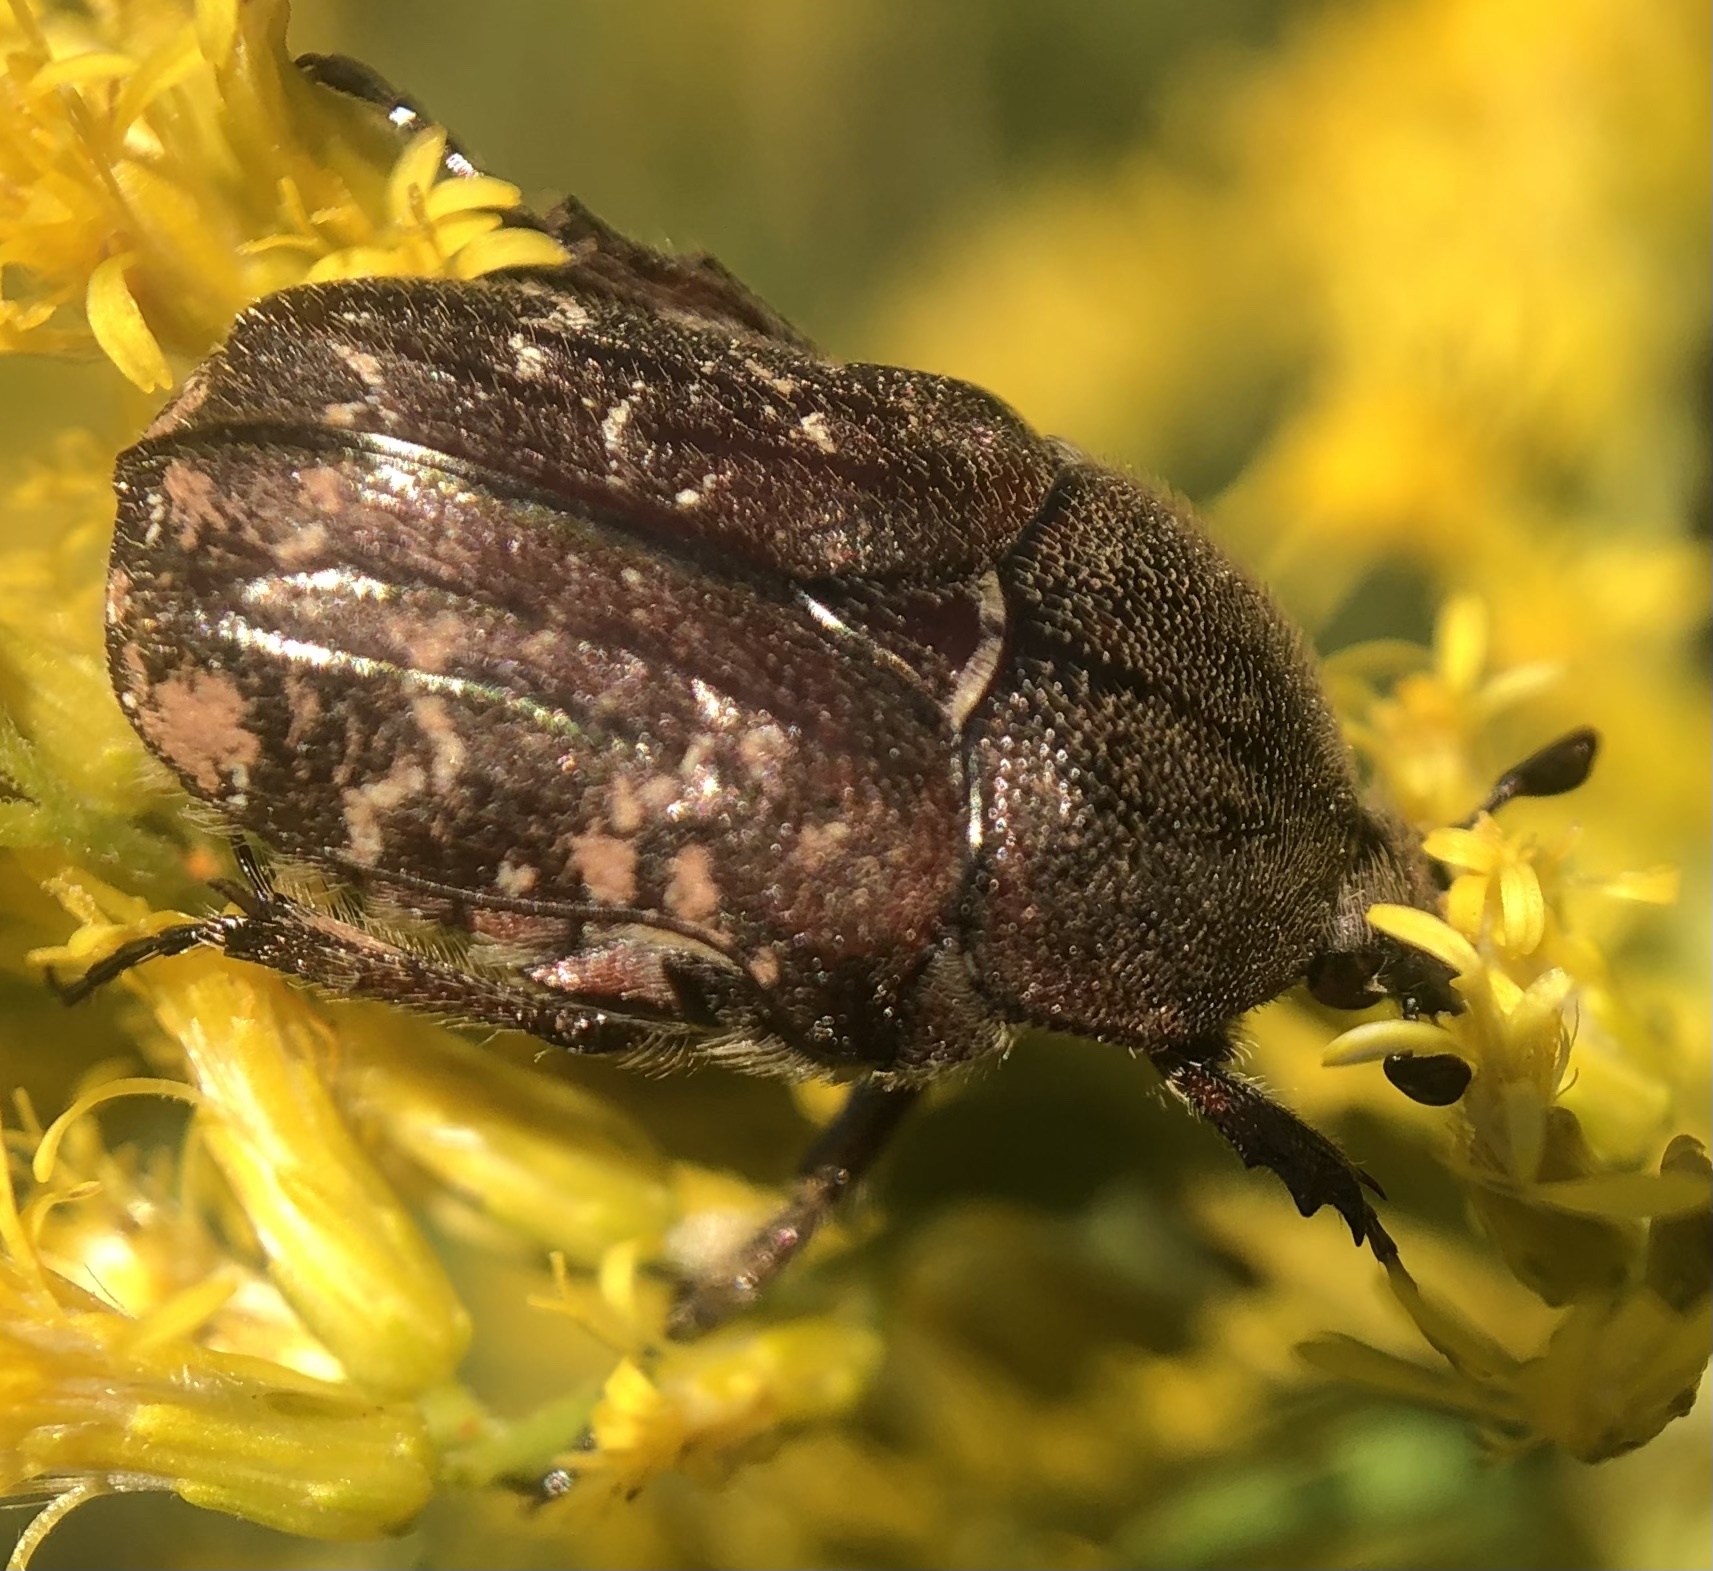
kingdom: Animalia
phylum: Arthropoda
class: Insecta
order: Coleoptera
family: Scarabaeidae
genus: Euphoria
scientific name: Euphoria sepulcralis
